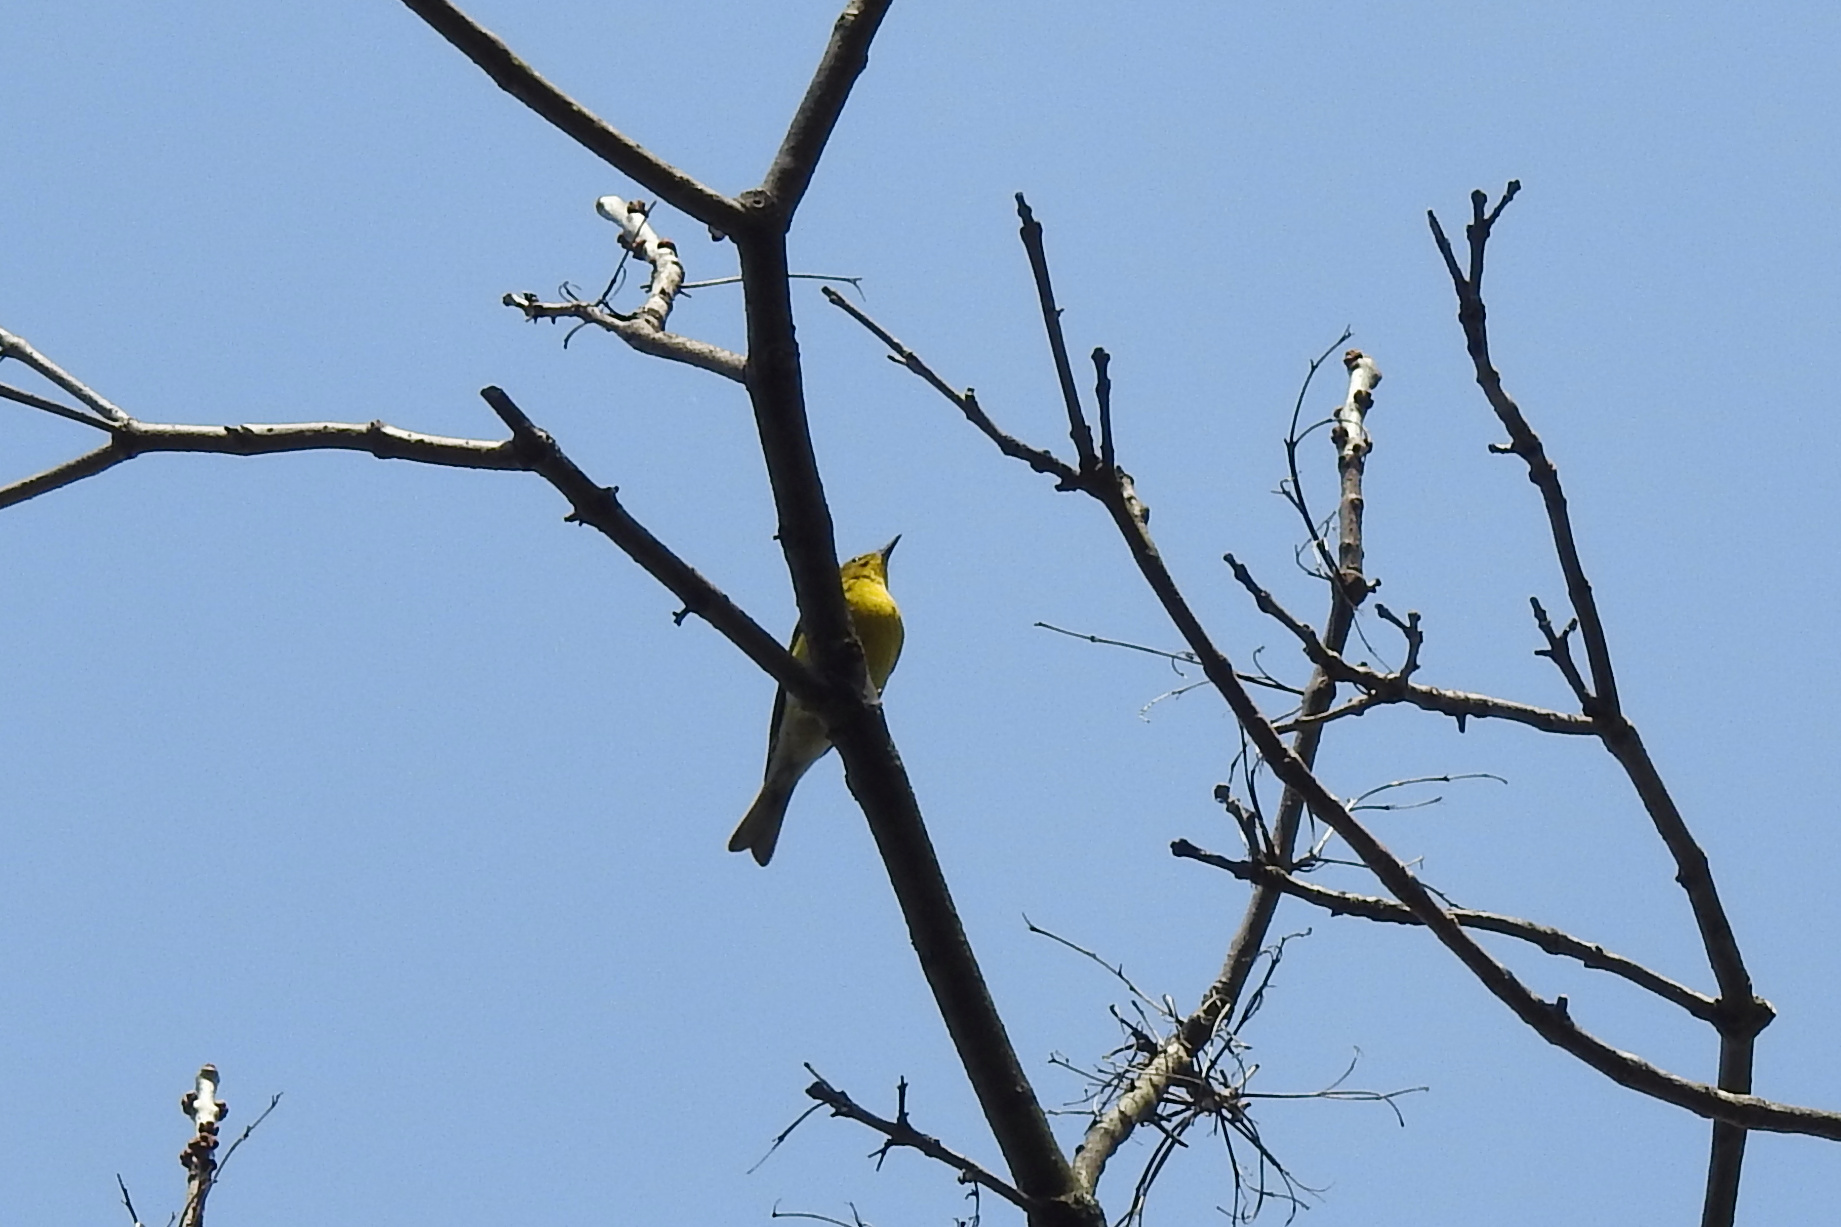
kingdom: Animalia
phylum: Chordata
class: Aves
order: Passeriformes
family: Parulidae
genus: Setophaga
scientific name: Setophaga pinus
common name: Pine warbler
